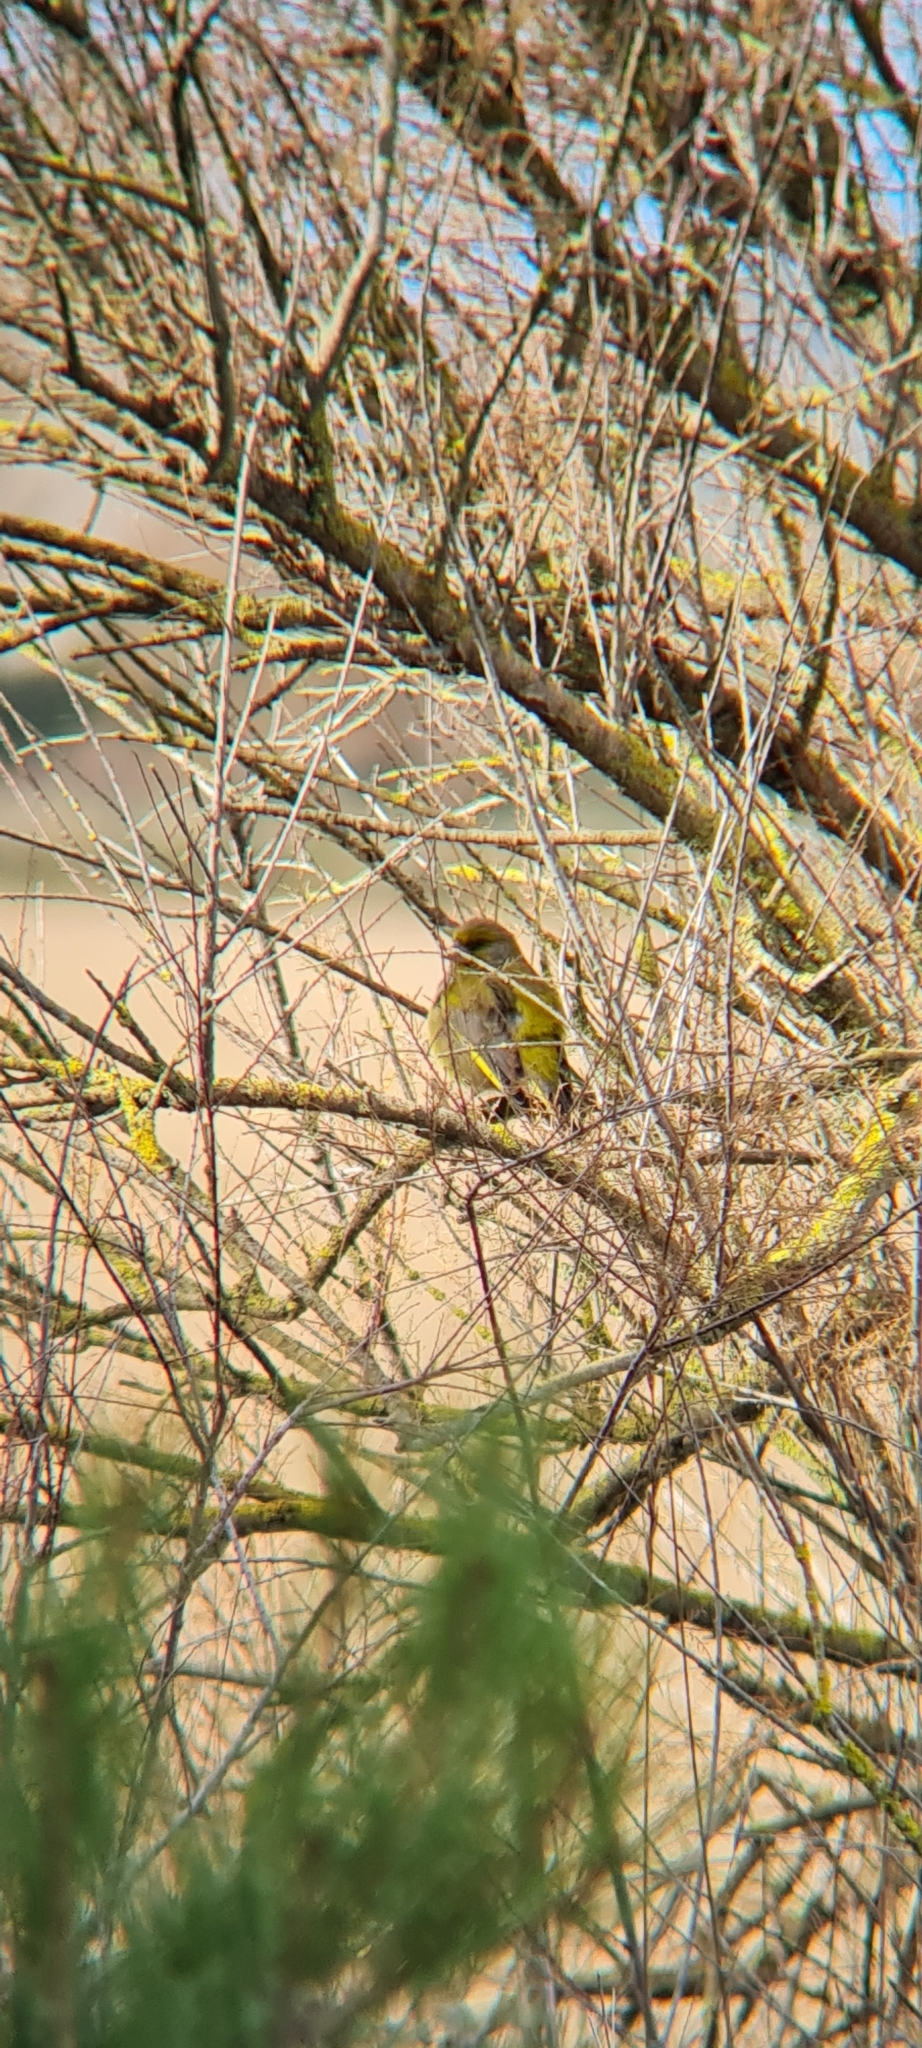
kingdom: Plantae
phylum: Tracheophyta
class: Liliopsida
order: Poales
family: Poaceae
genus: Chloris
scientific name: Chloris chloris
